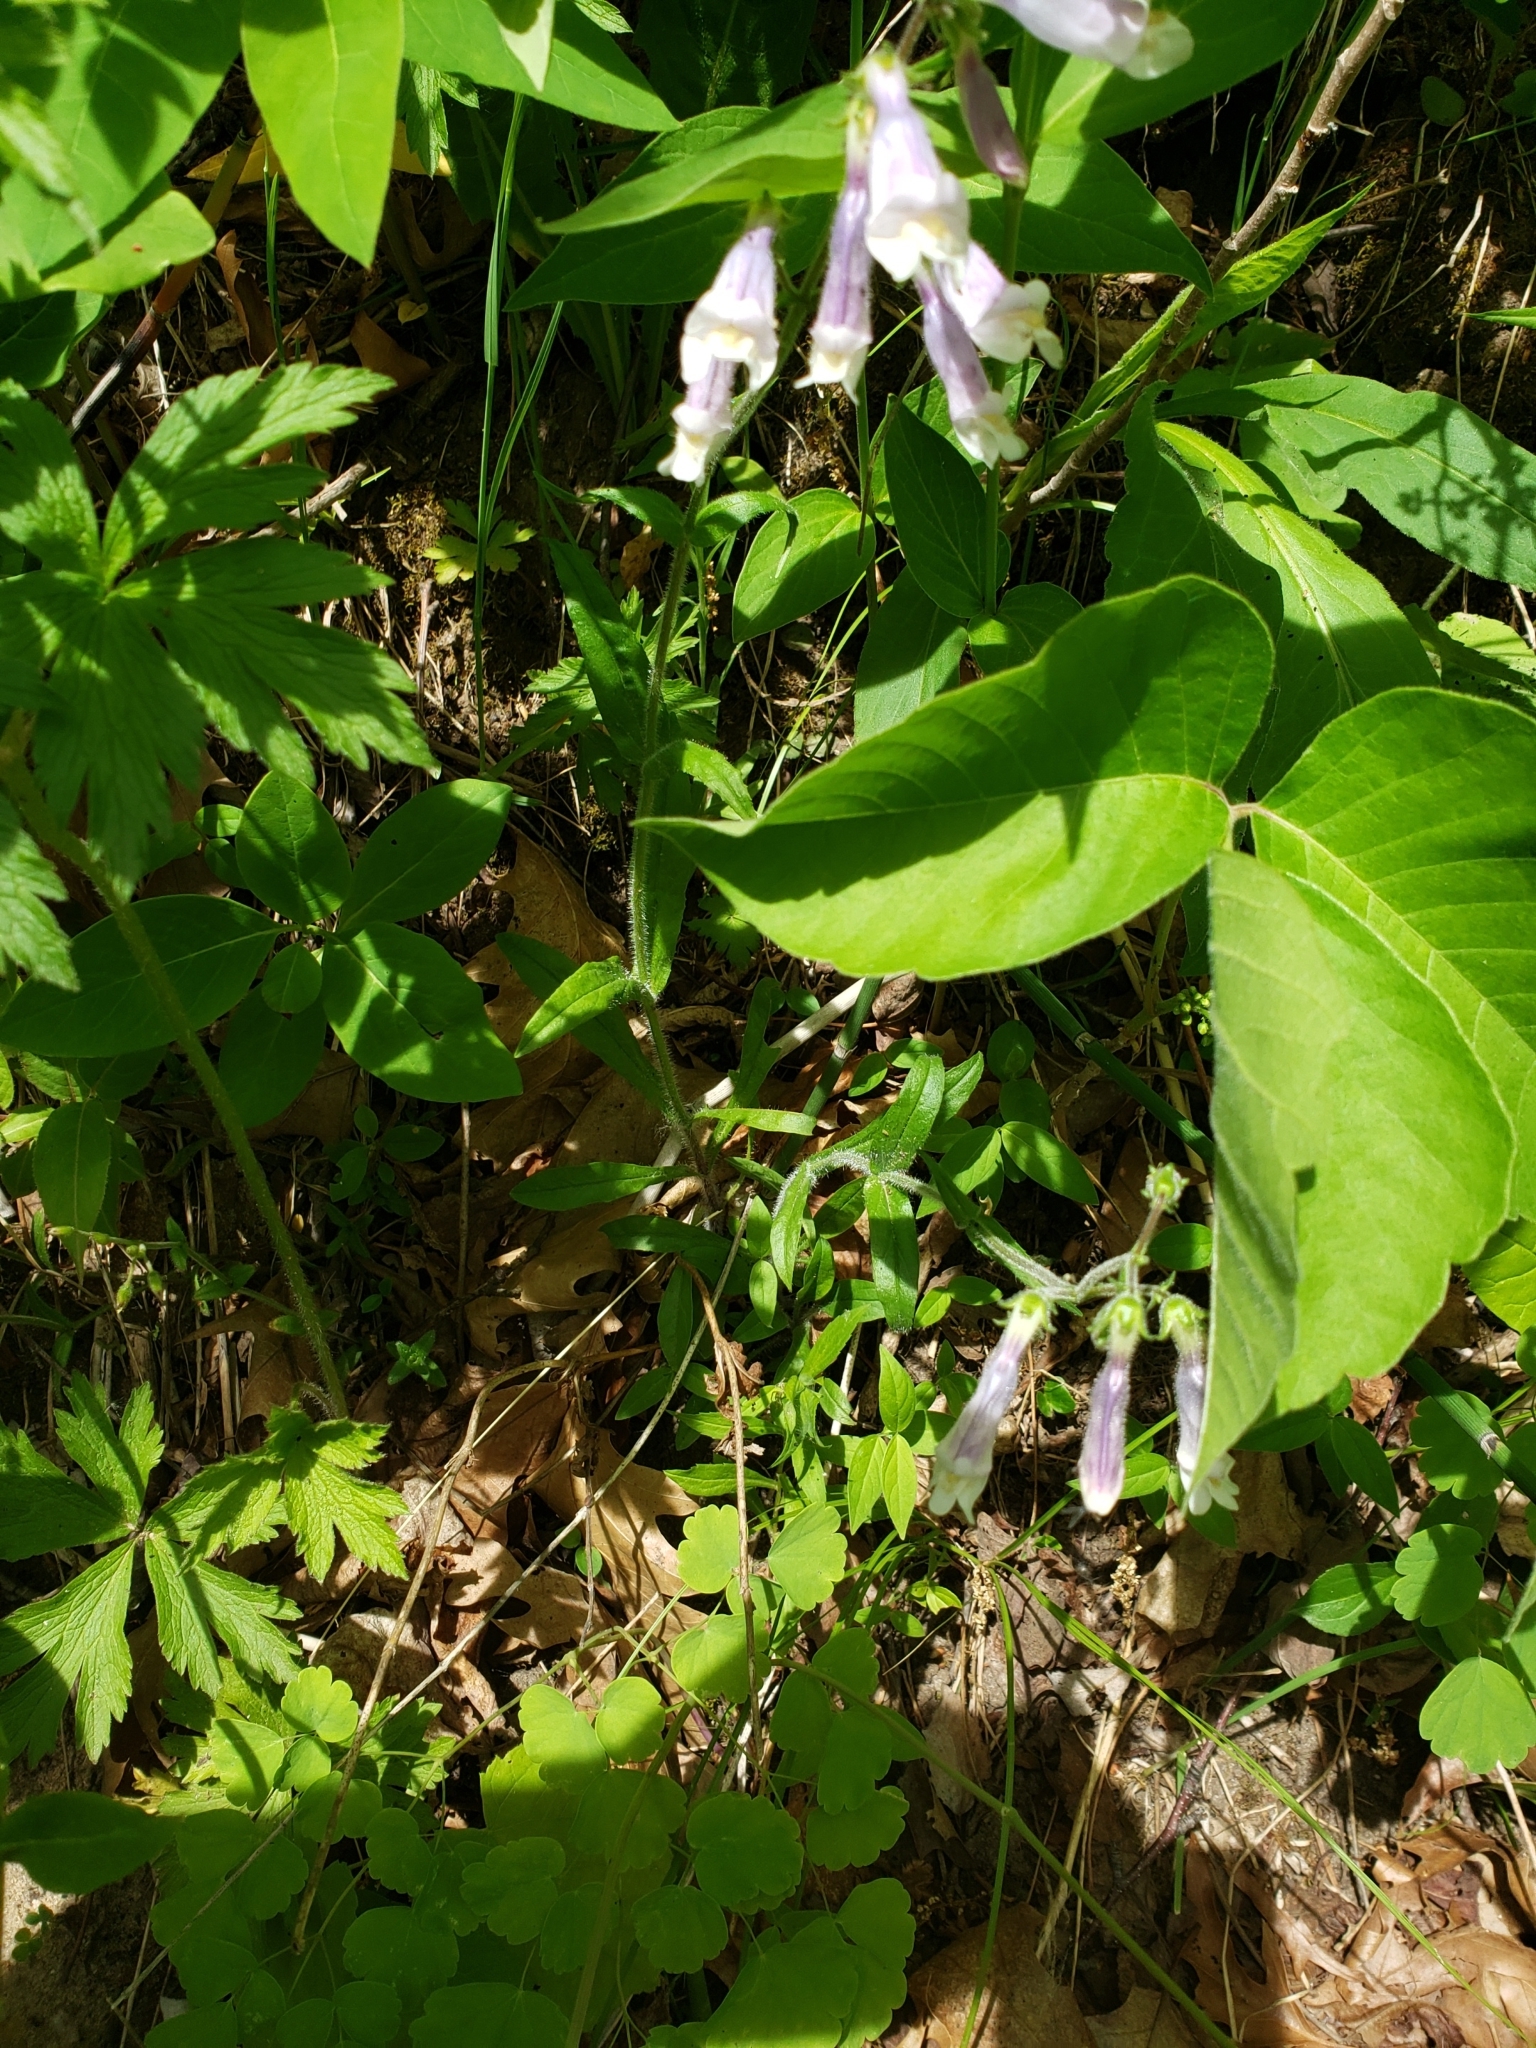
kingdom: Plantae
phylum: Tracheophyta
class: Magnoliopsida
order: Lamiales
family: Plantaginaceae
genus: Penstemon
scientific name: Penstemon hirsutus
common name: Hairy beardtongue
